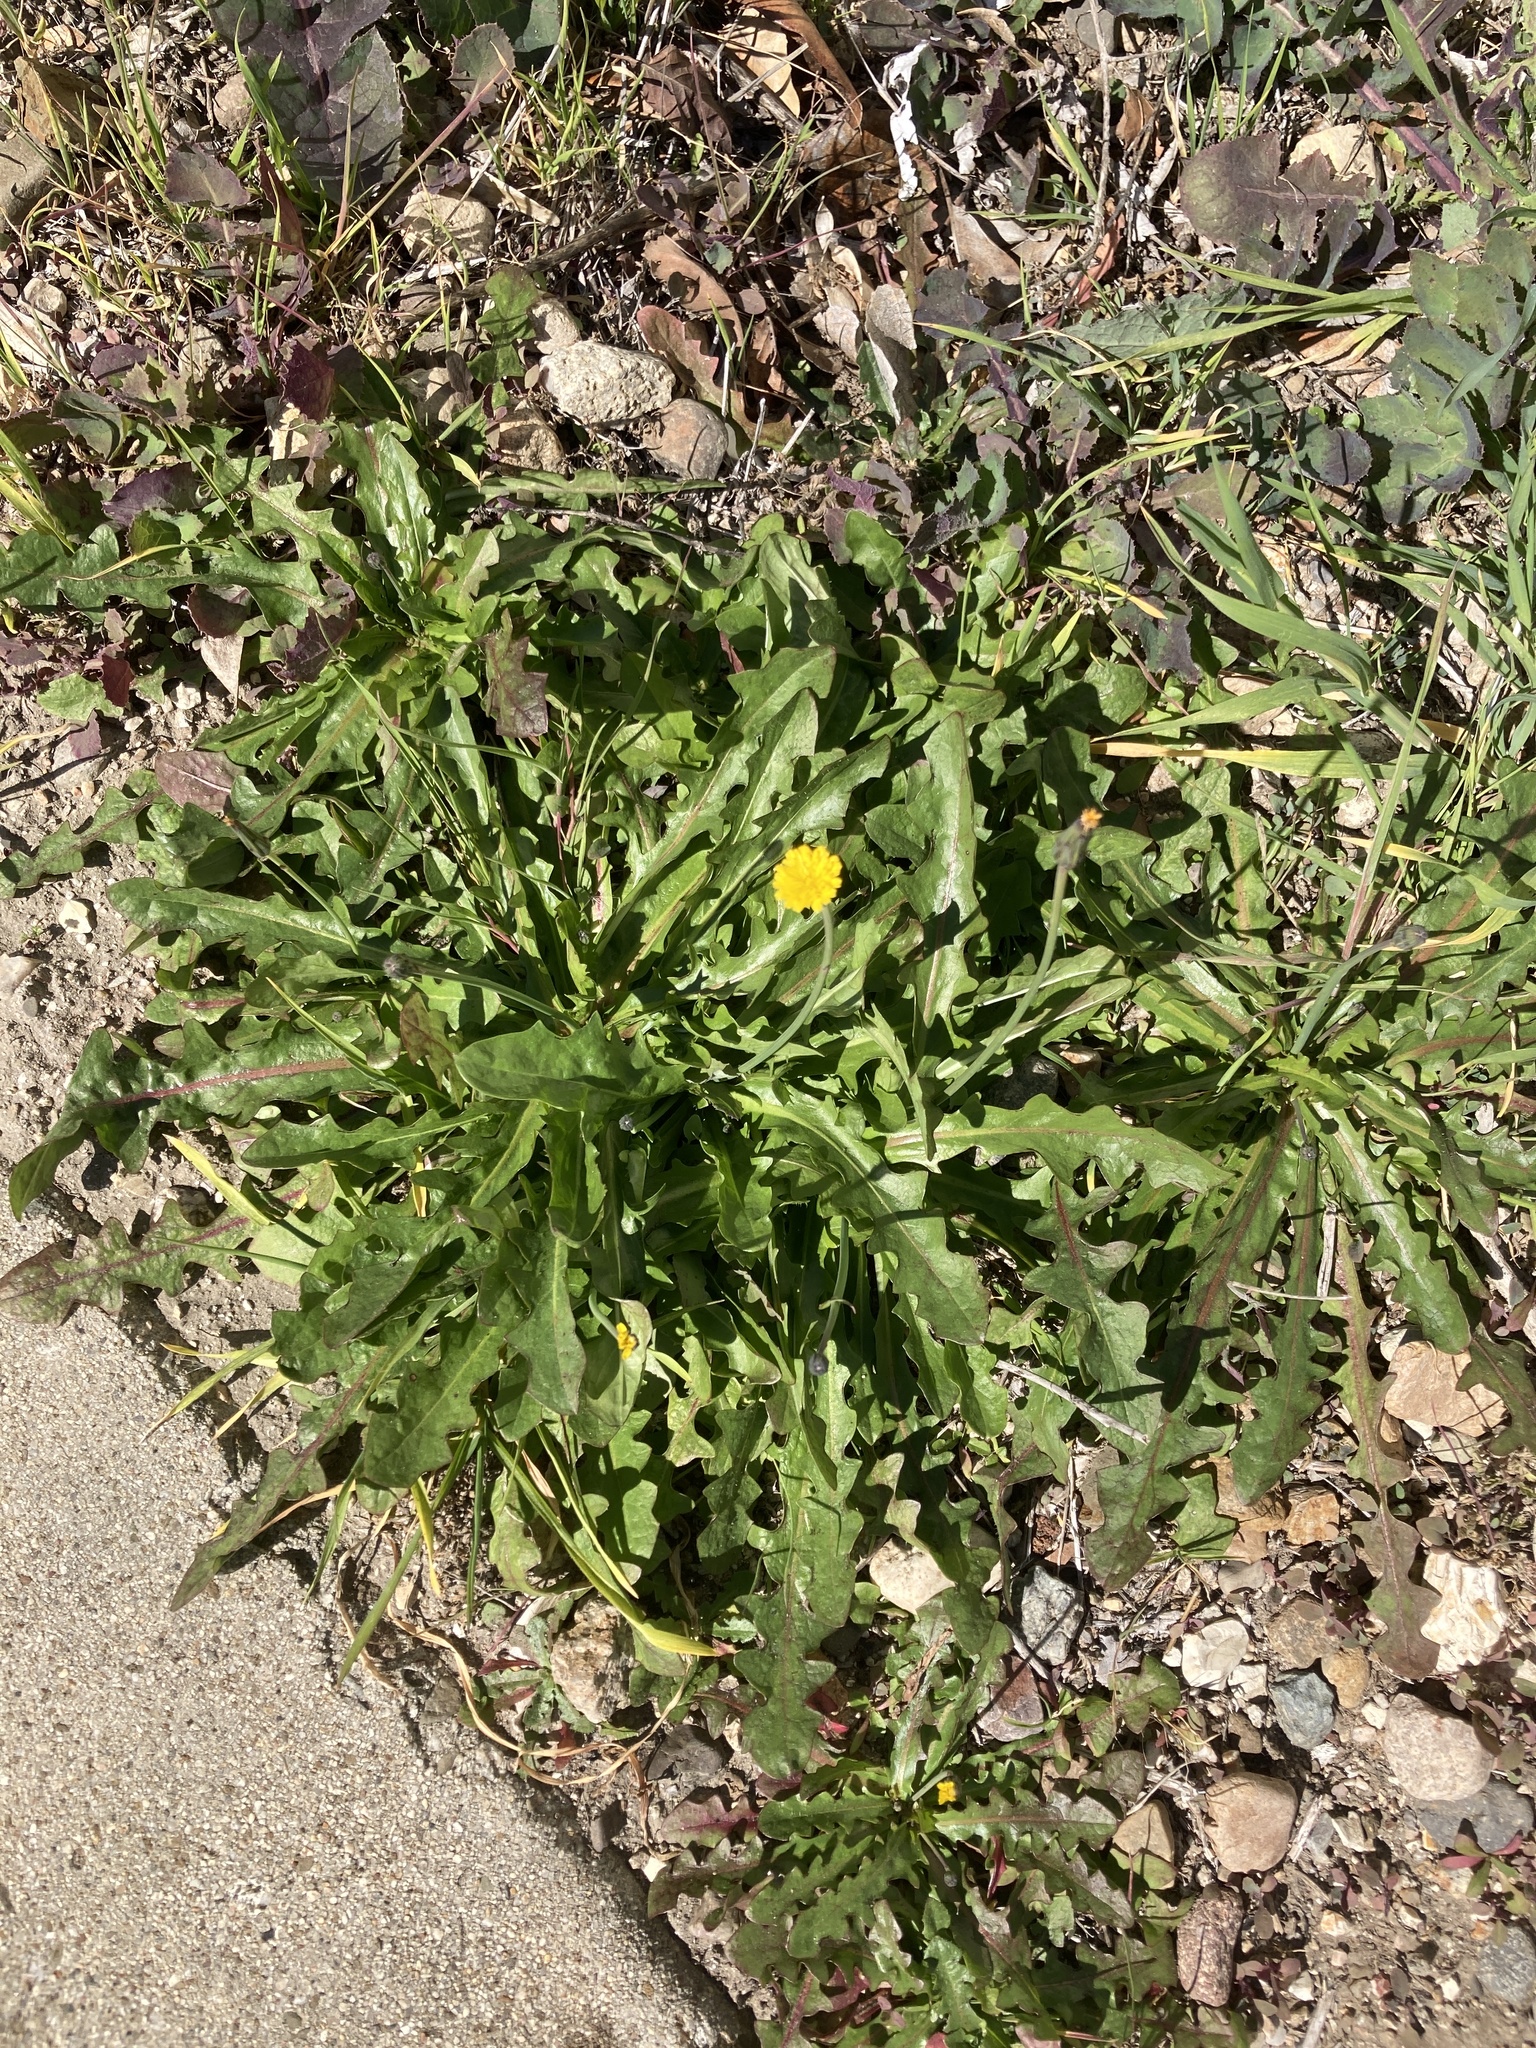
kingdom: Plantae
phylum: Tracheophyta
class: Magnoliopsida
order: Asterales
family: Asteraceae
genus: Hypochaeris
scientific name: Hypochaeris glabra
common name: Smooth catsear
